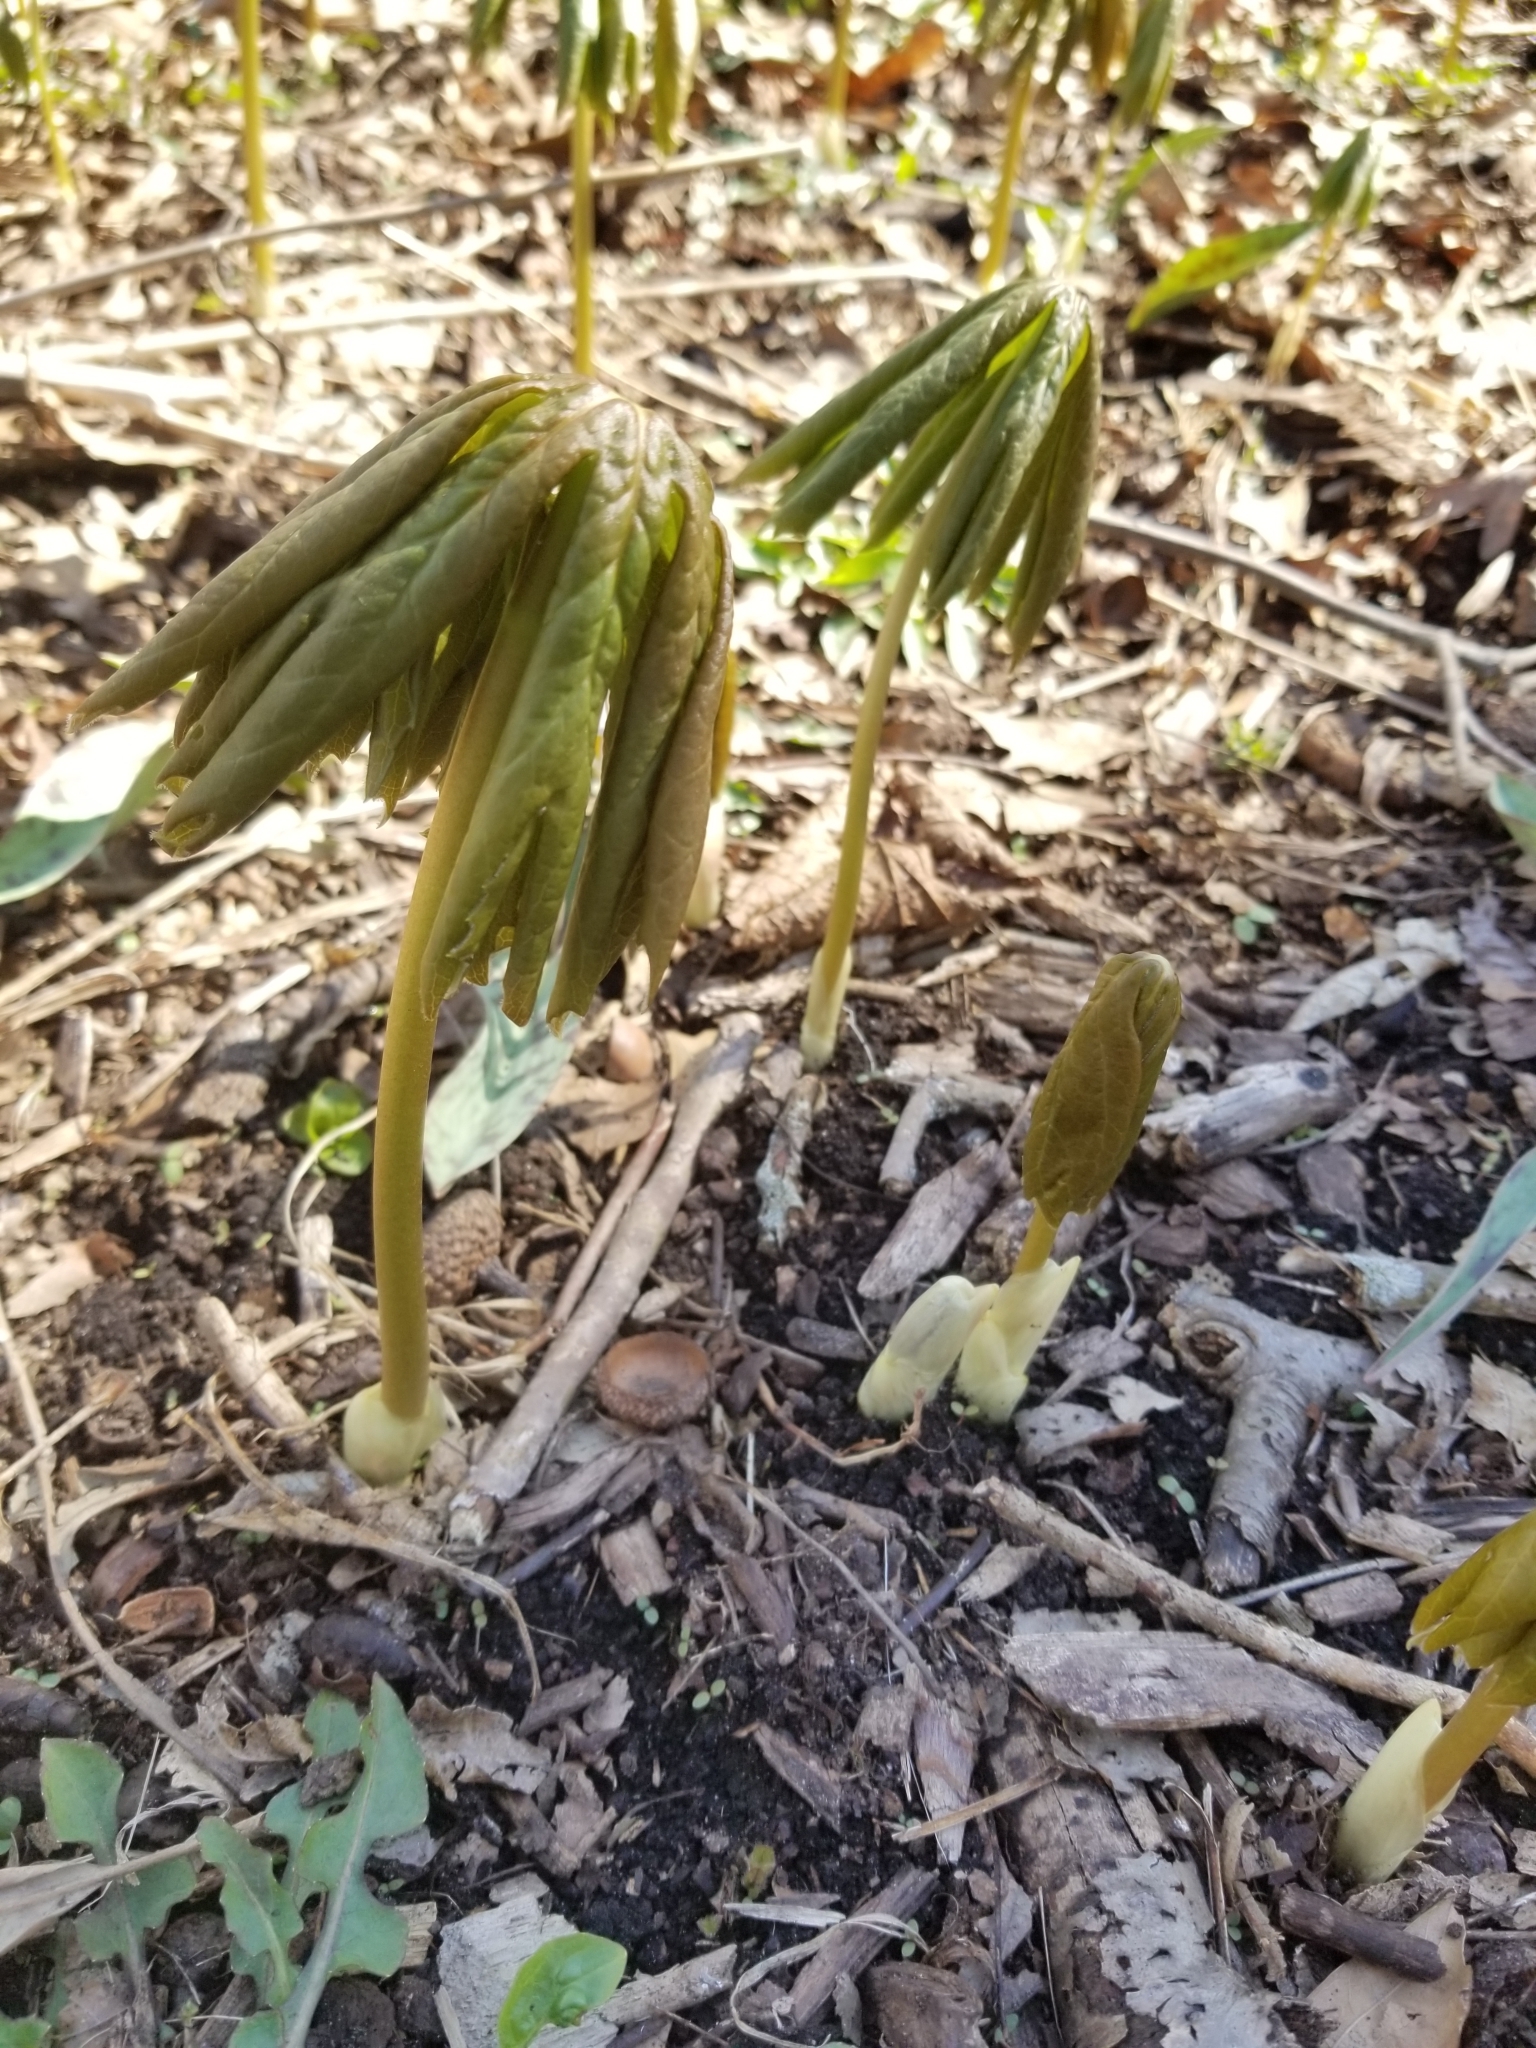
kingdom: Plantae
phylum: Tracheophyta
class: Magnoliopsida
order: Ranunculales
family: Berberidaceae
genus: Podophyllum
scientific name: Podophyllum peltatum
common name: Wild mandrake
